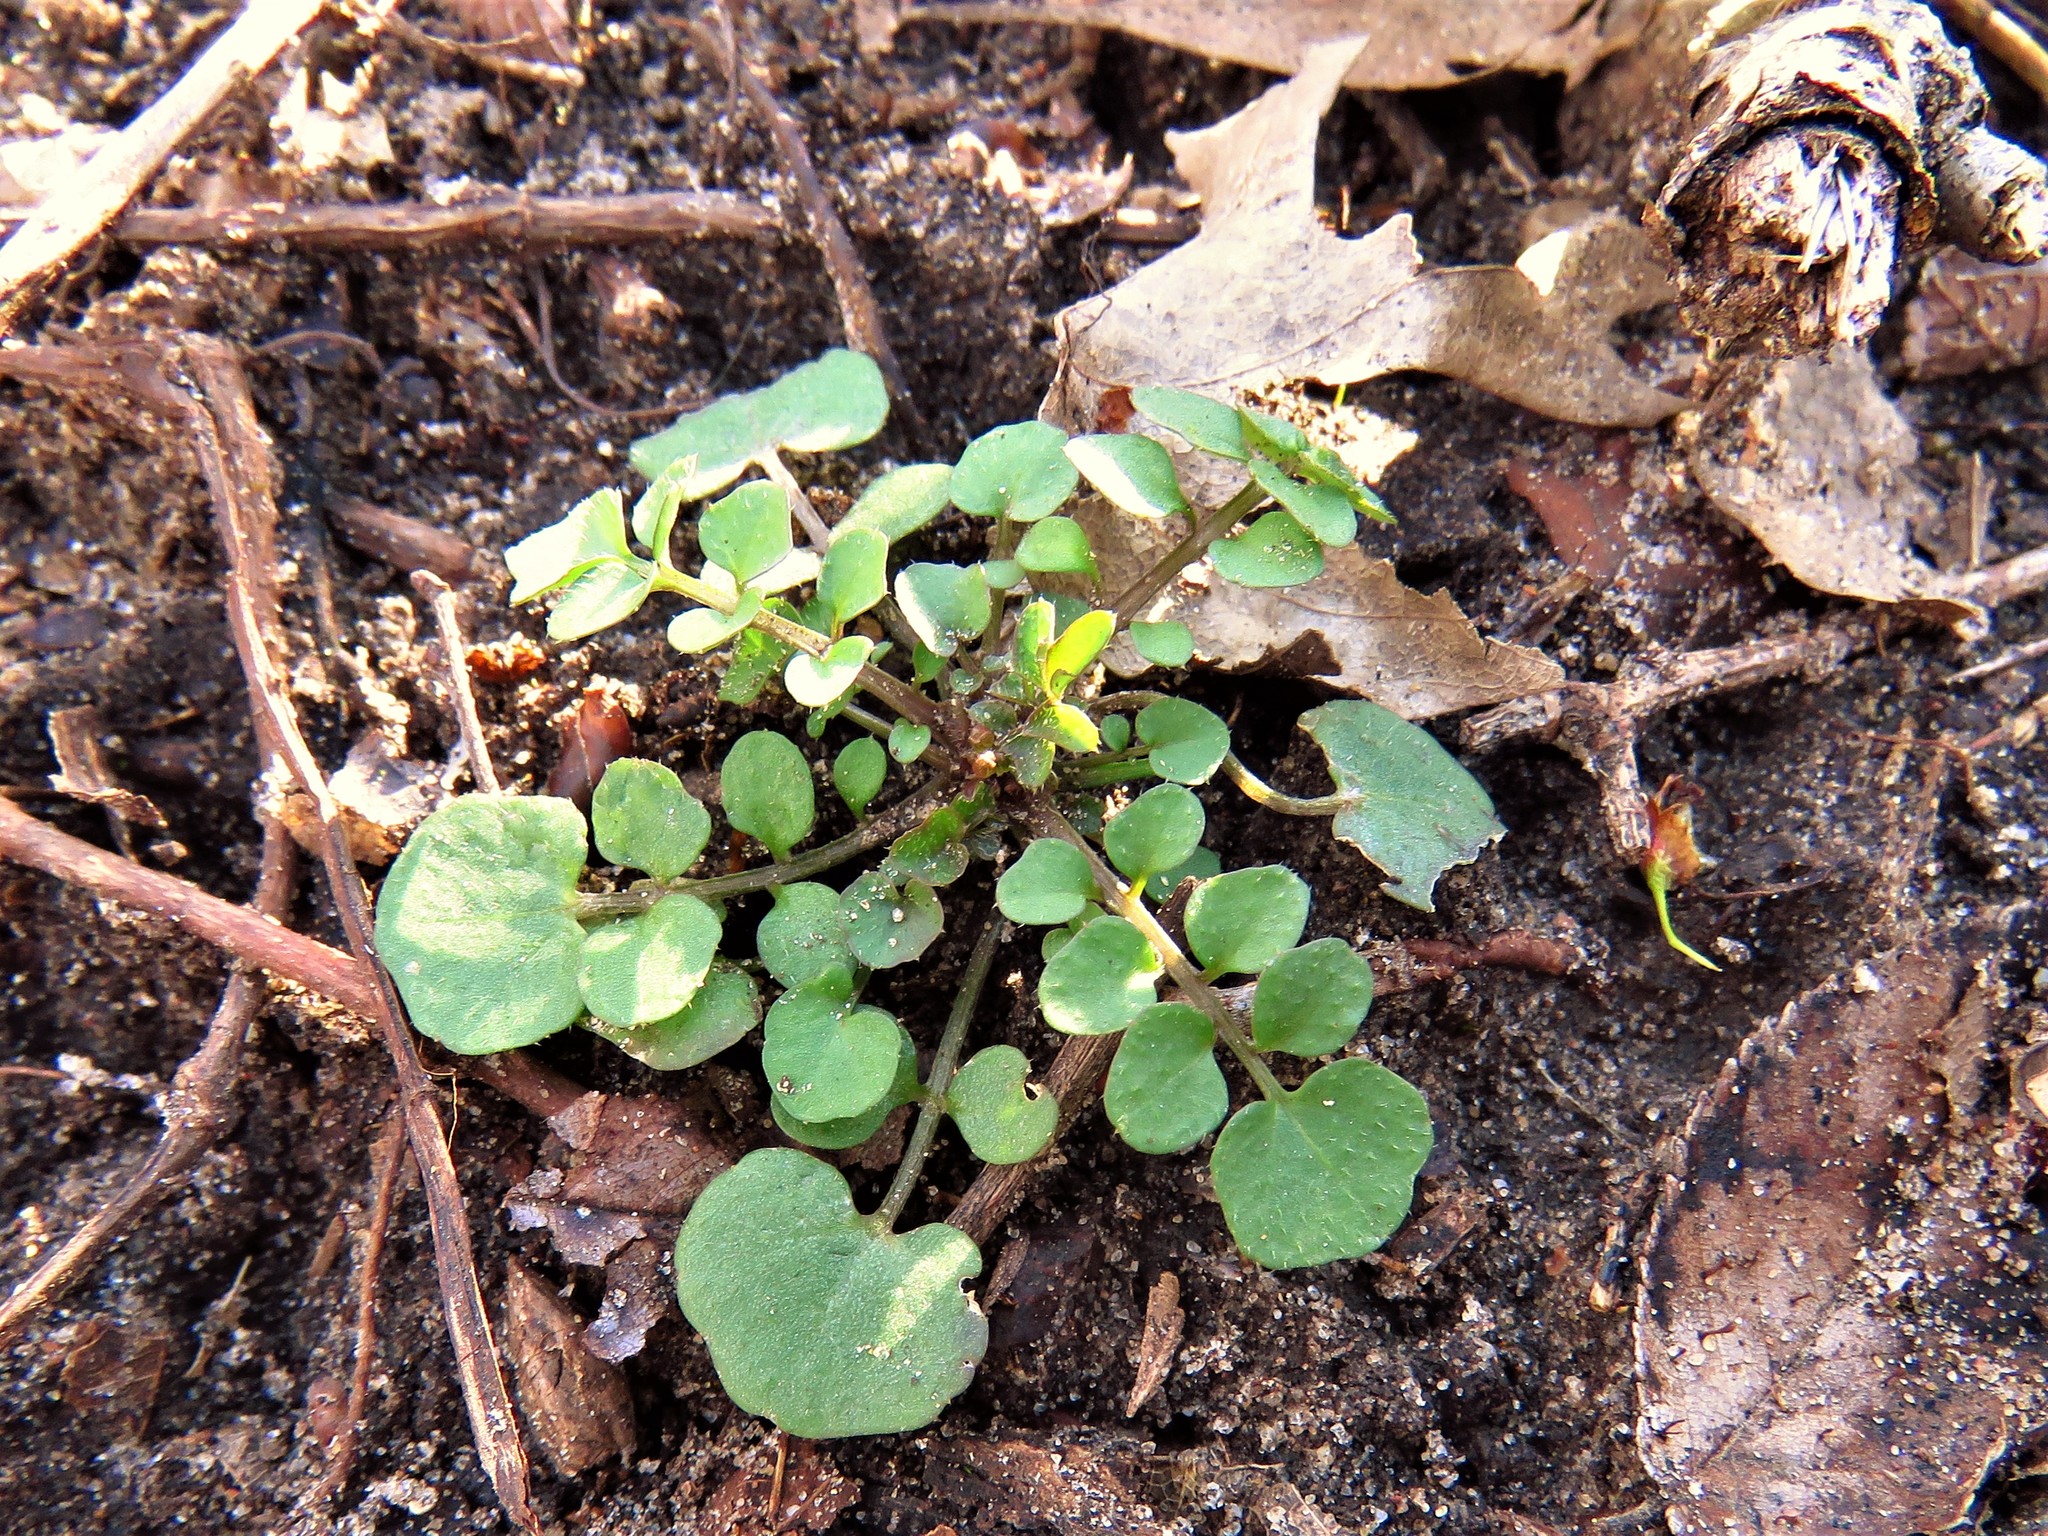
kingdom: Plantae
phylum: Tracheophyta
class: Magnoliopsida
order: Brassicales
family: Brassicaceae
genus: Cardamine
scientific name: Cardamine hirsuta
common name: Hairy bittercress
